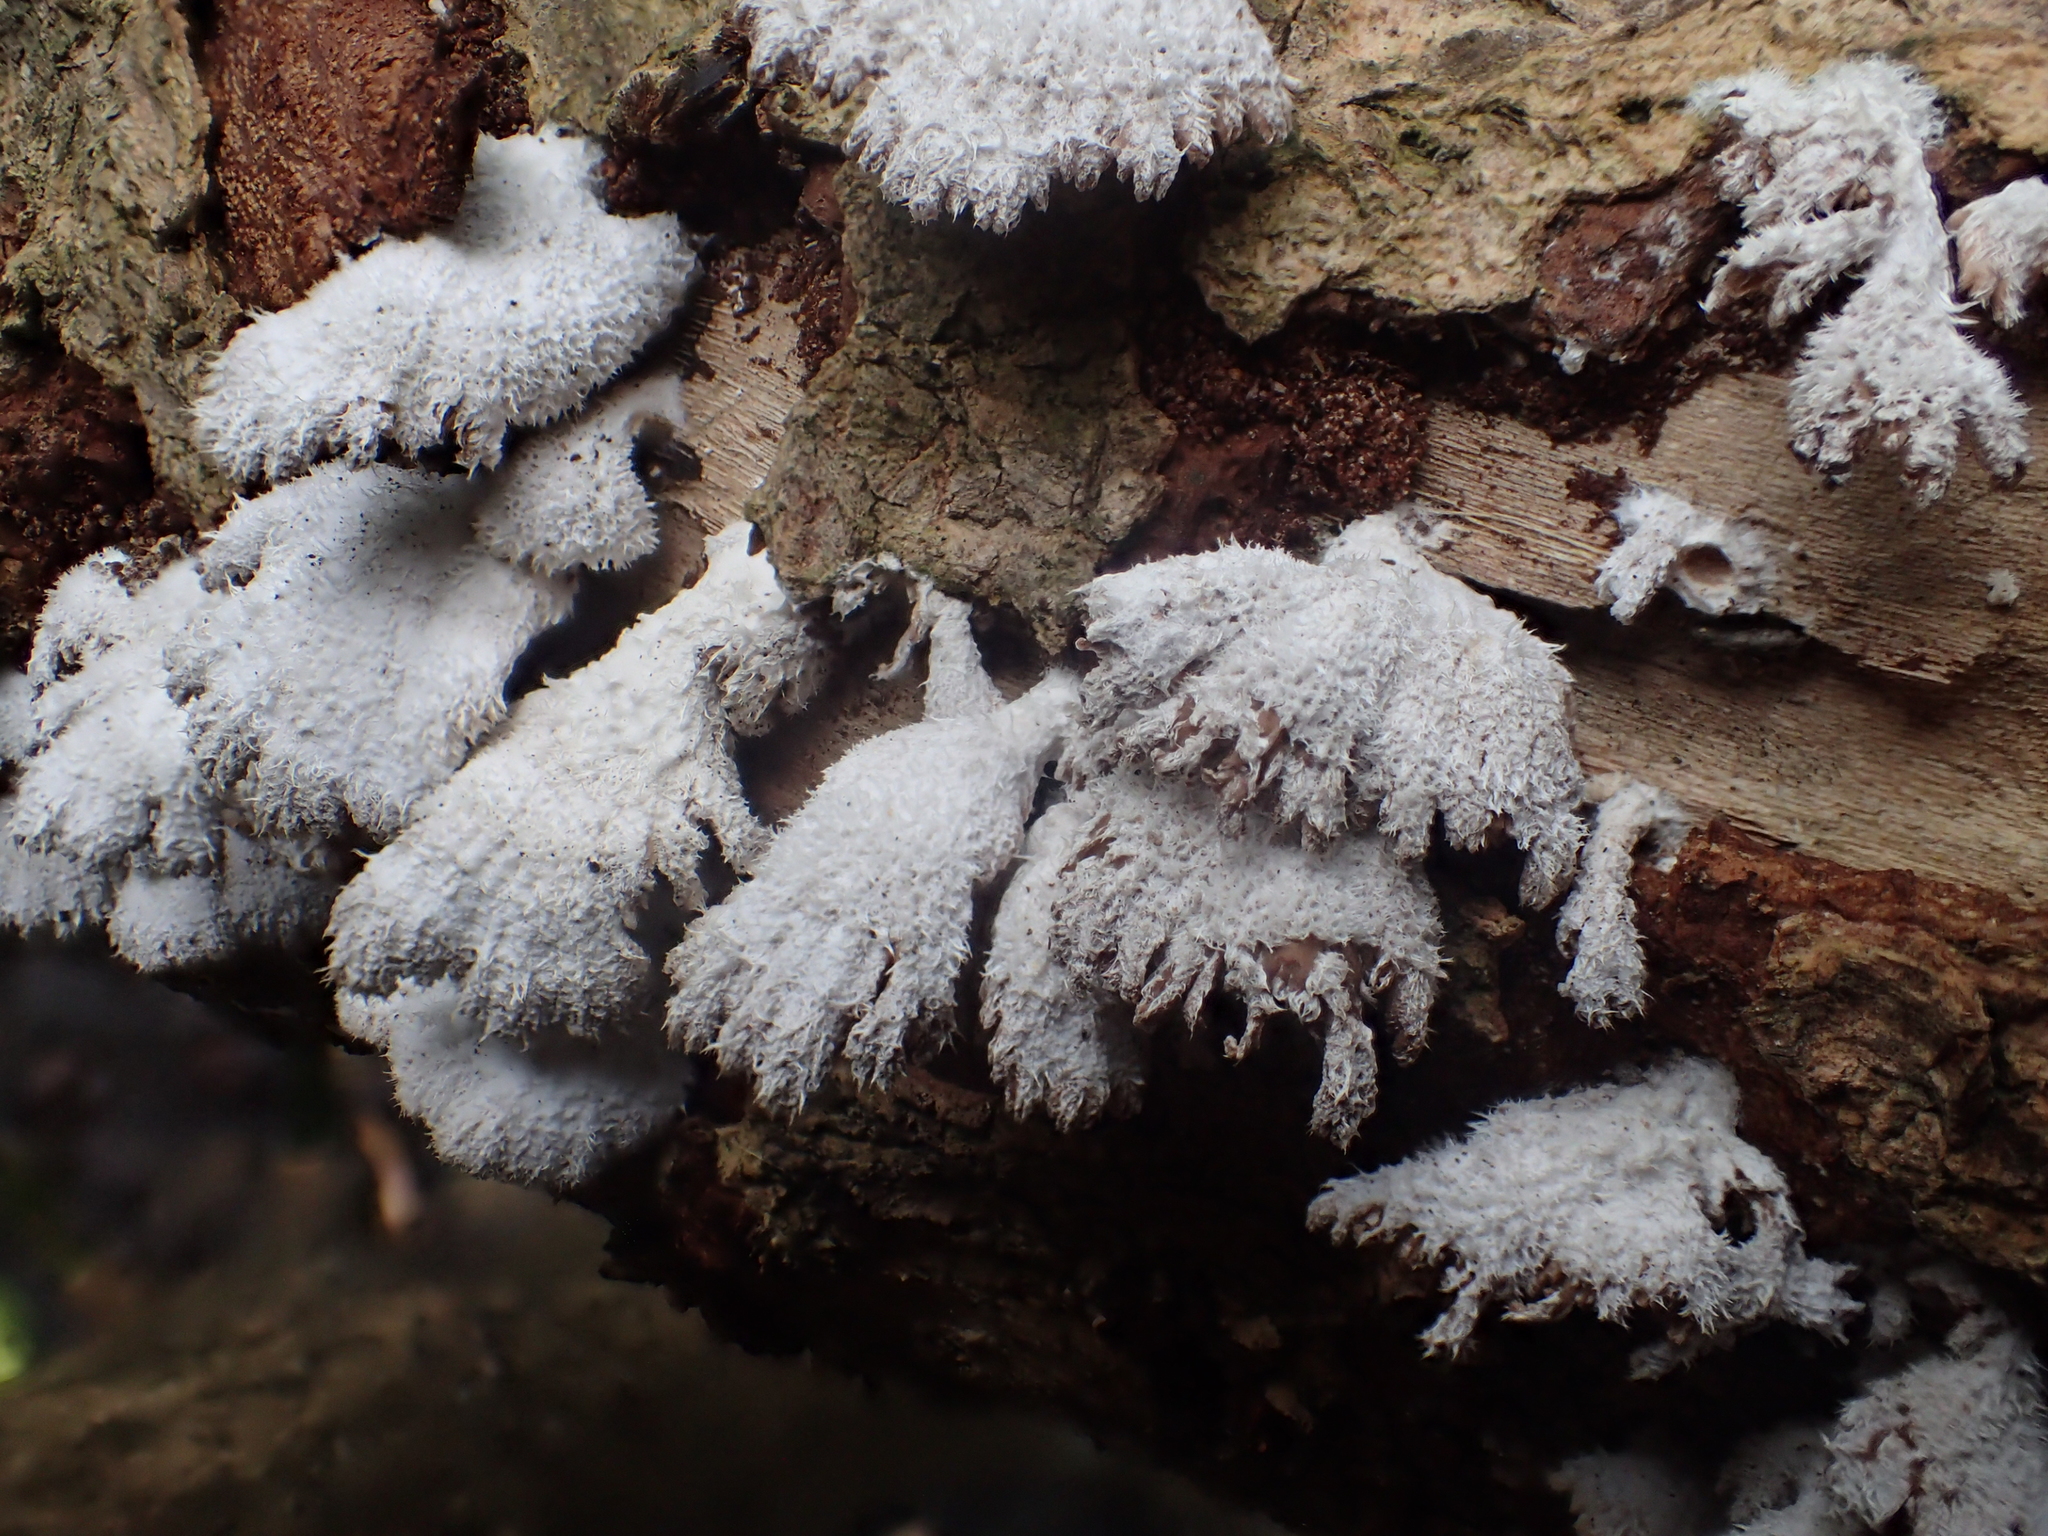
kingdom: Fungi
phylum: Basidiomycota
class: Agaricomycetes
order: Agaricales
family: Schizophyllaceae
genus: Schizophyllum
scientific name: Schizophyllum commune
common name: Common porecrust
